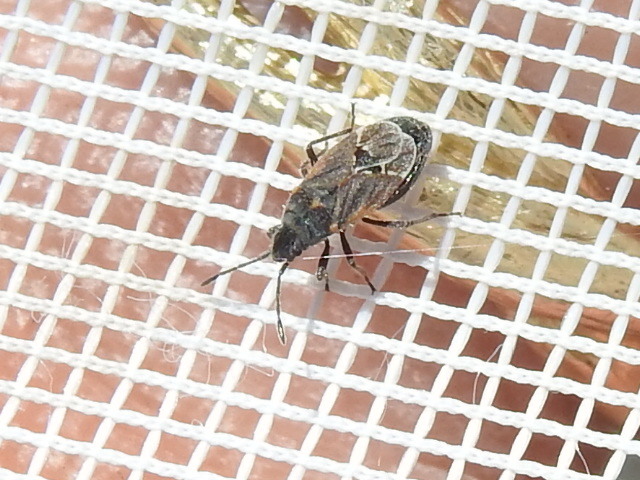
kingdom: Animalia
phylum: Arthropoda
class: Insecta
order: Hemiptera
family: Lygaeidae
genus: Lygaeospilus
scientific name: Lygaeospilus tripunctatus
